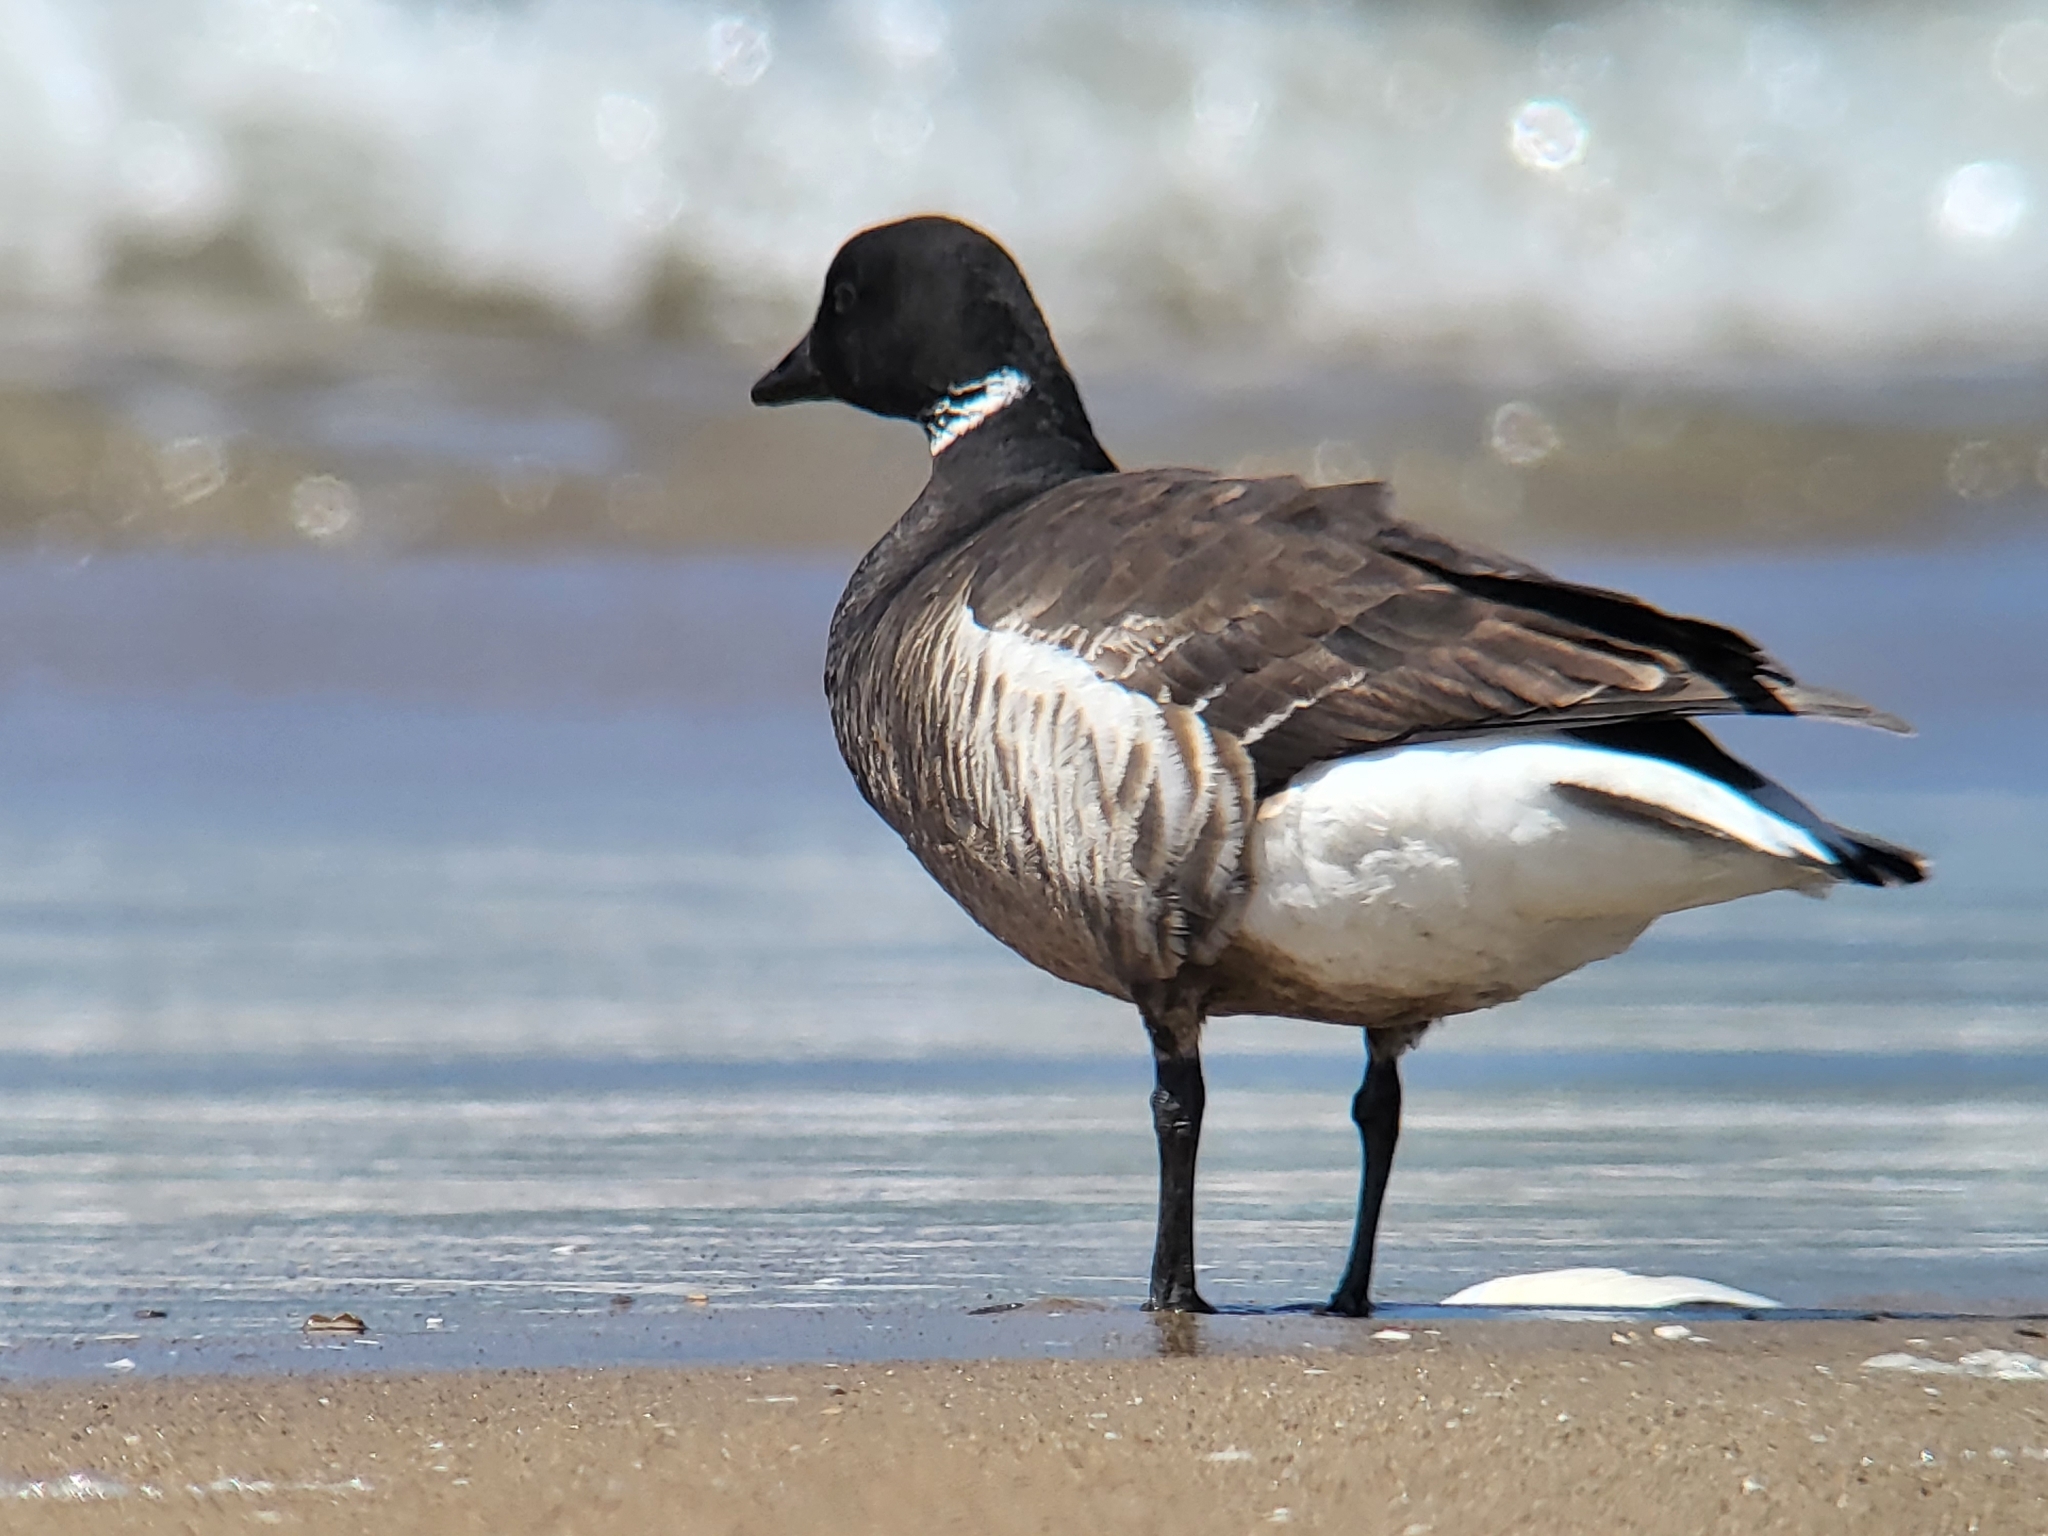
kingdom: Animalia
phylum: Chordata
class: Aves
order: Anseriformes
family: Anatidae
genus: Branta
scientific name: Branta bernicla
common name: Brant goose
